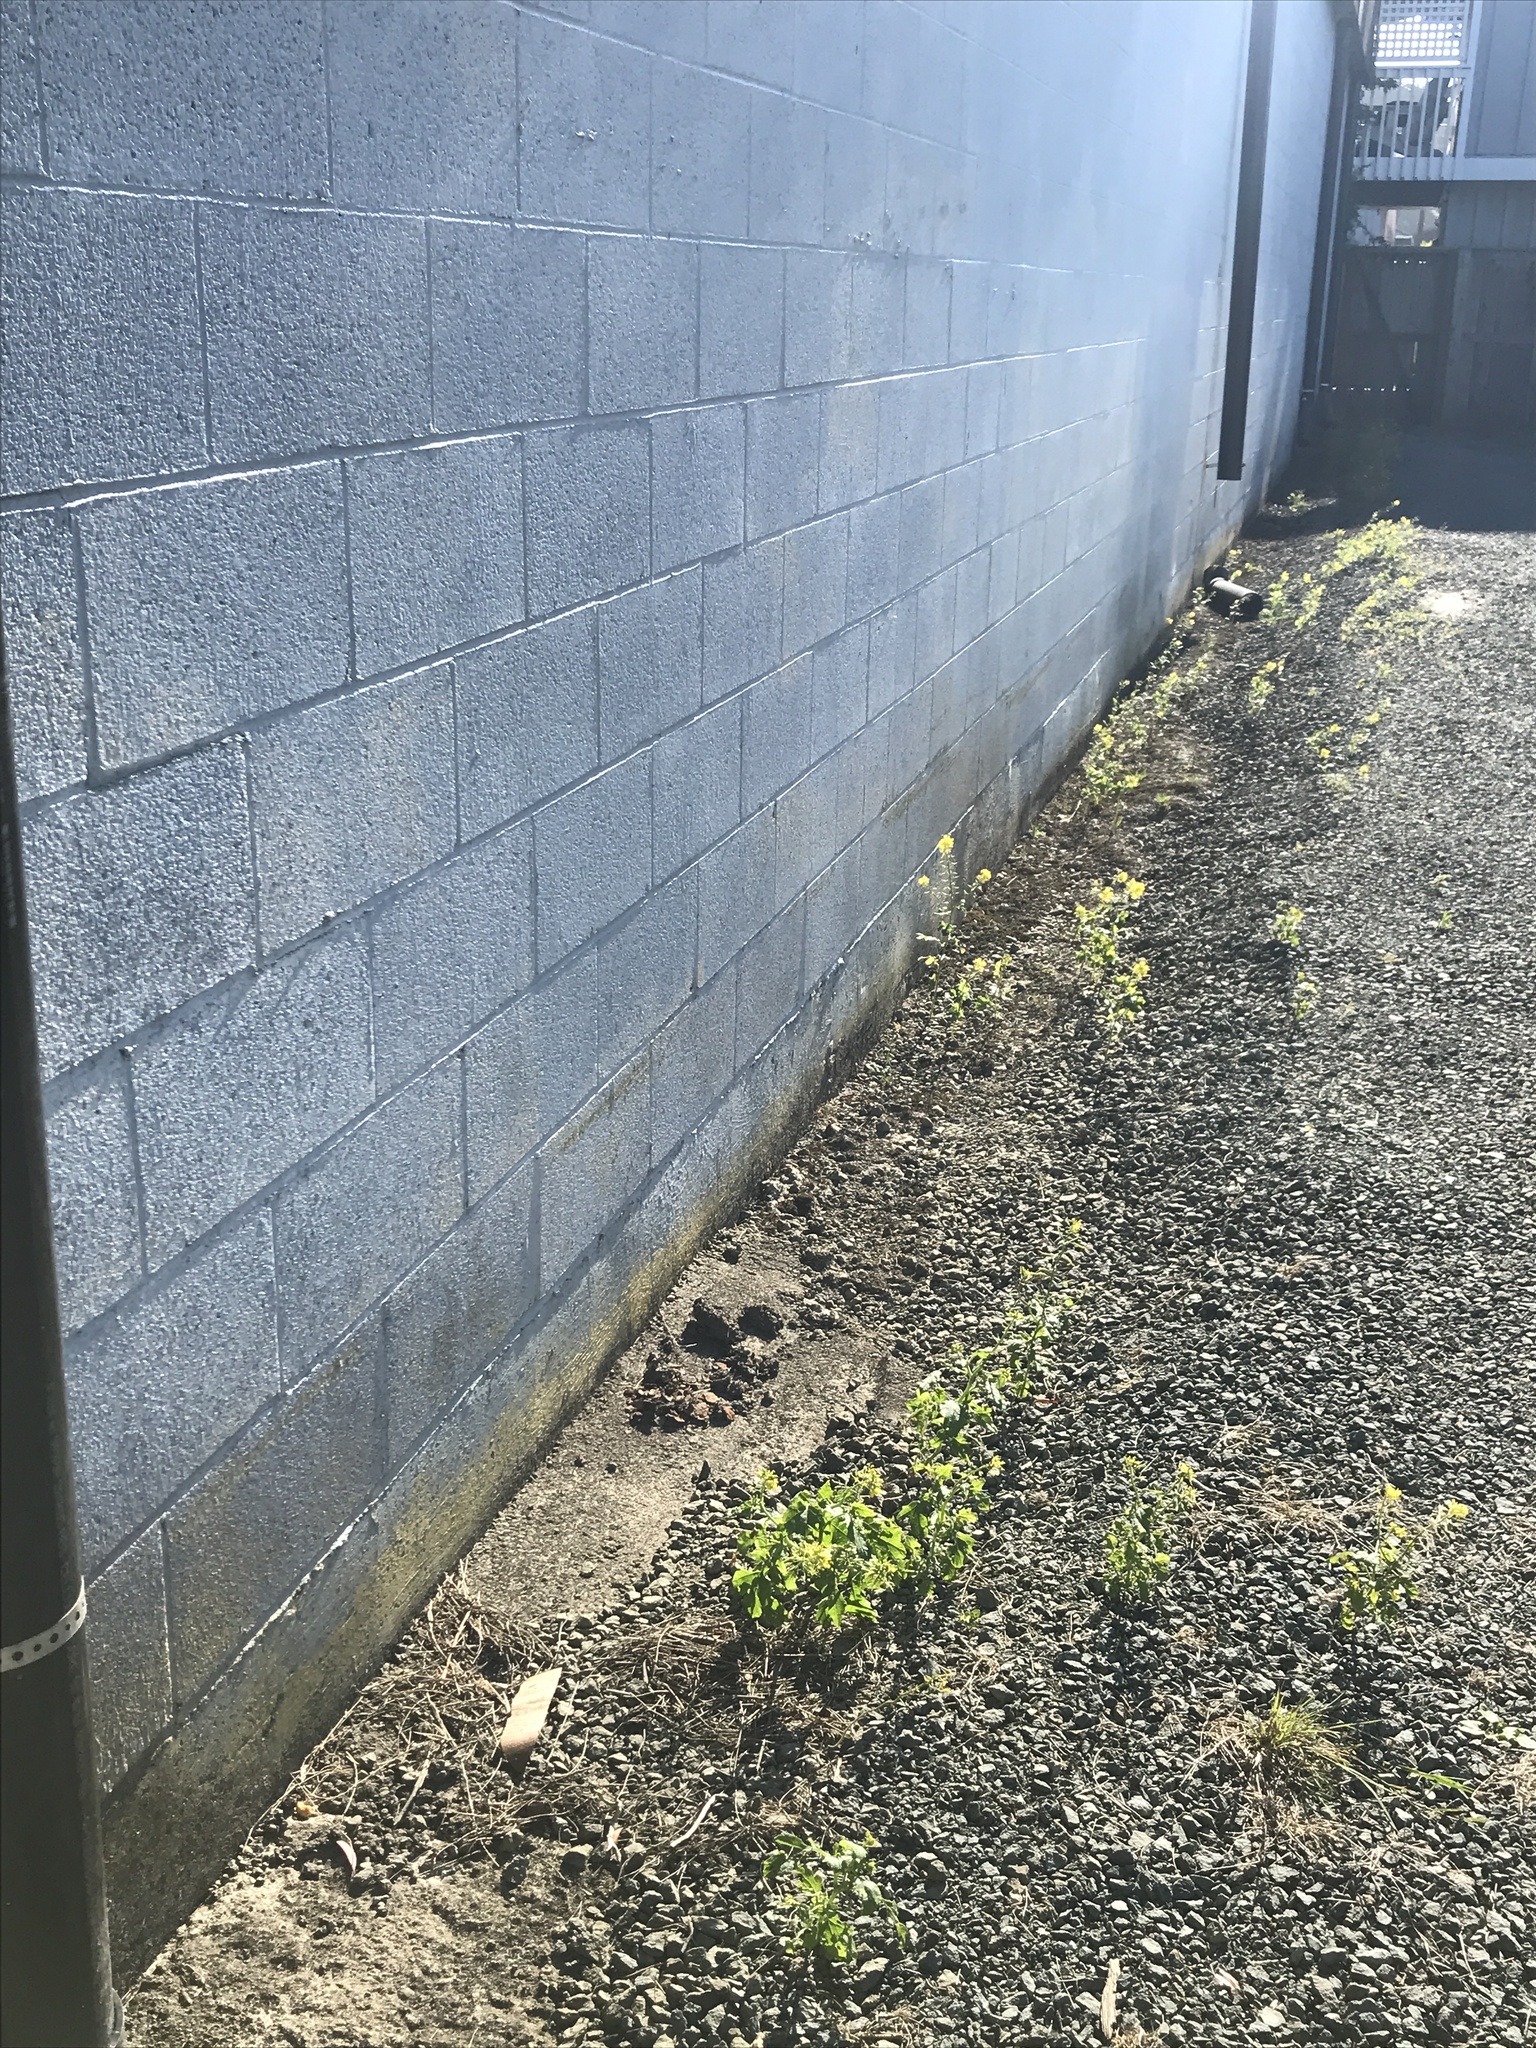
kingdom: Plantae
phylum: Tracheophyta
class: Magnoliopsida
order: Brassicales
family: Brassicaceae
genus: Sinapis
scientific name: Sinapis alba
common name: White mustard
